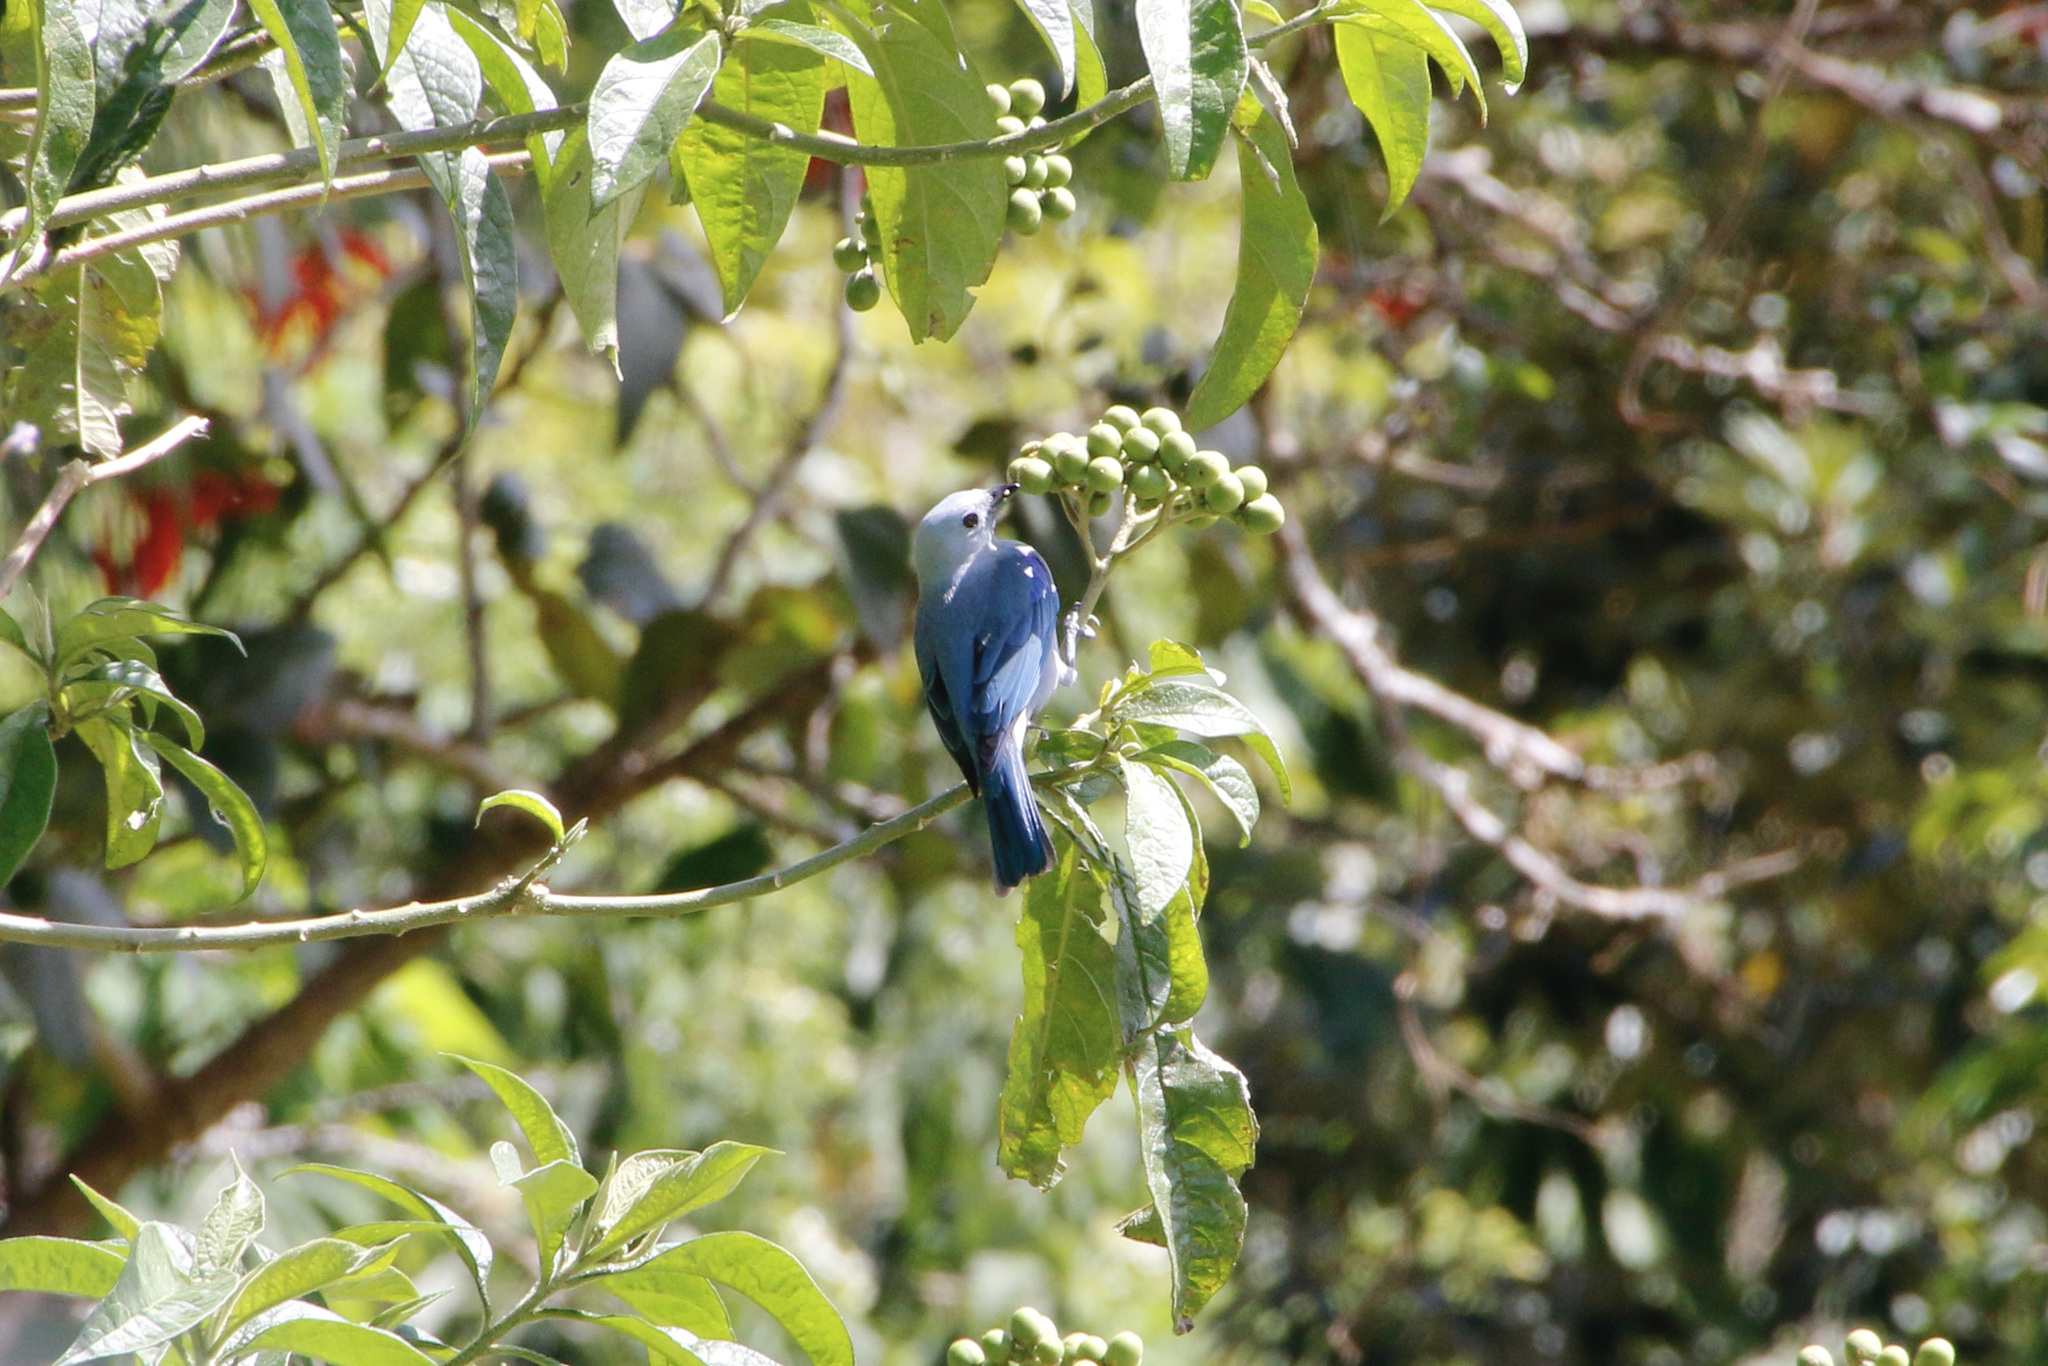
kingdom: Animalia
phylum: Chordata
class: Aves
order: Passeriformes
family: Thraupidae
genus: Thraupis
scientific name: Thraupis episcopus
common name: Blue-grey tanager
